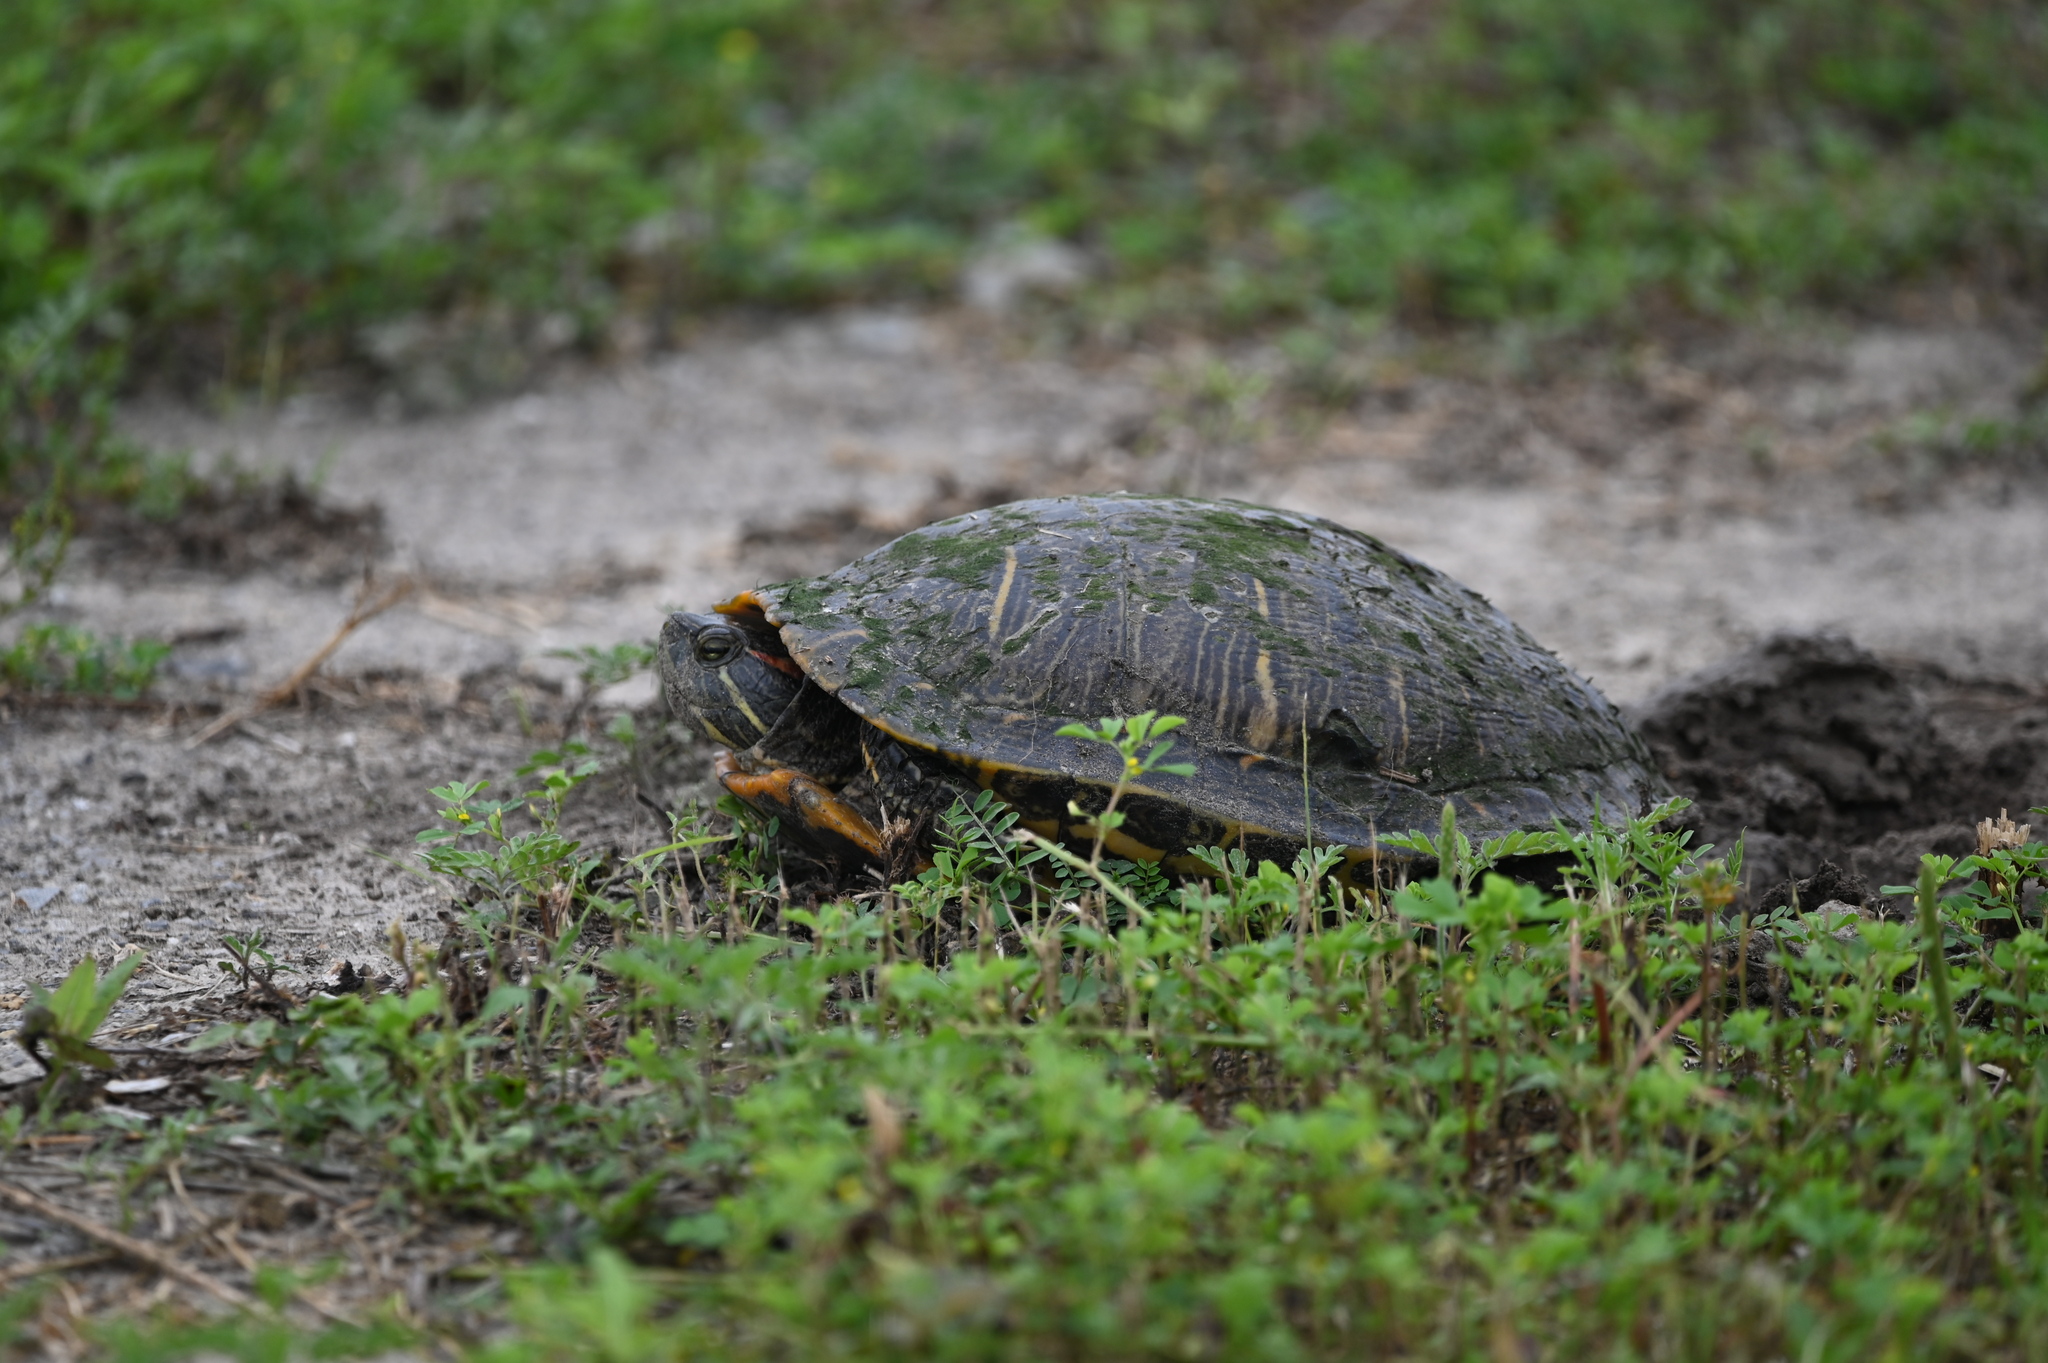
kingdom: Animalia
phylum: Chordata
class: Testudines
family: Emydidae
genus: Trachemys
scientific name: Trachemys scripta
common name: Slider
